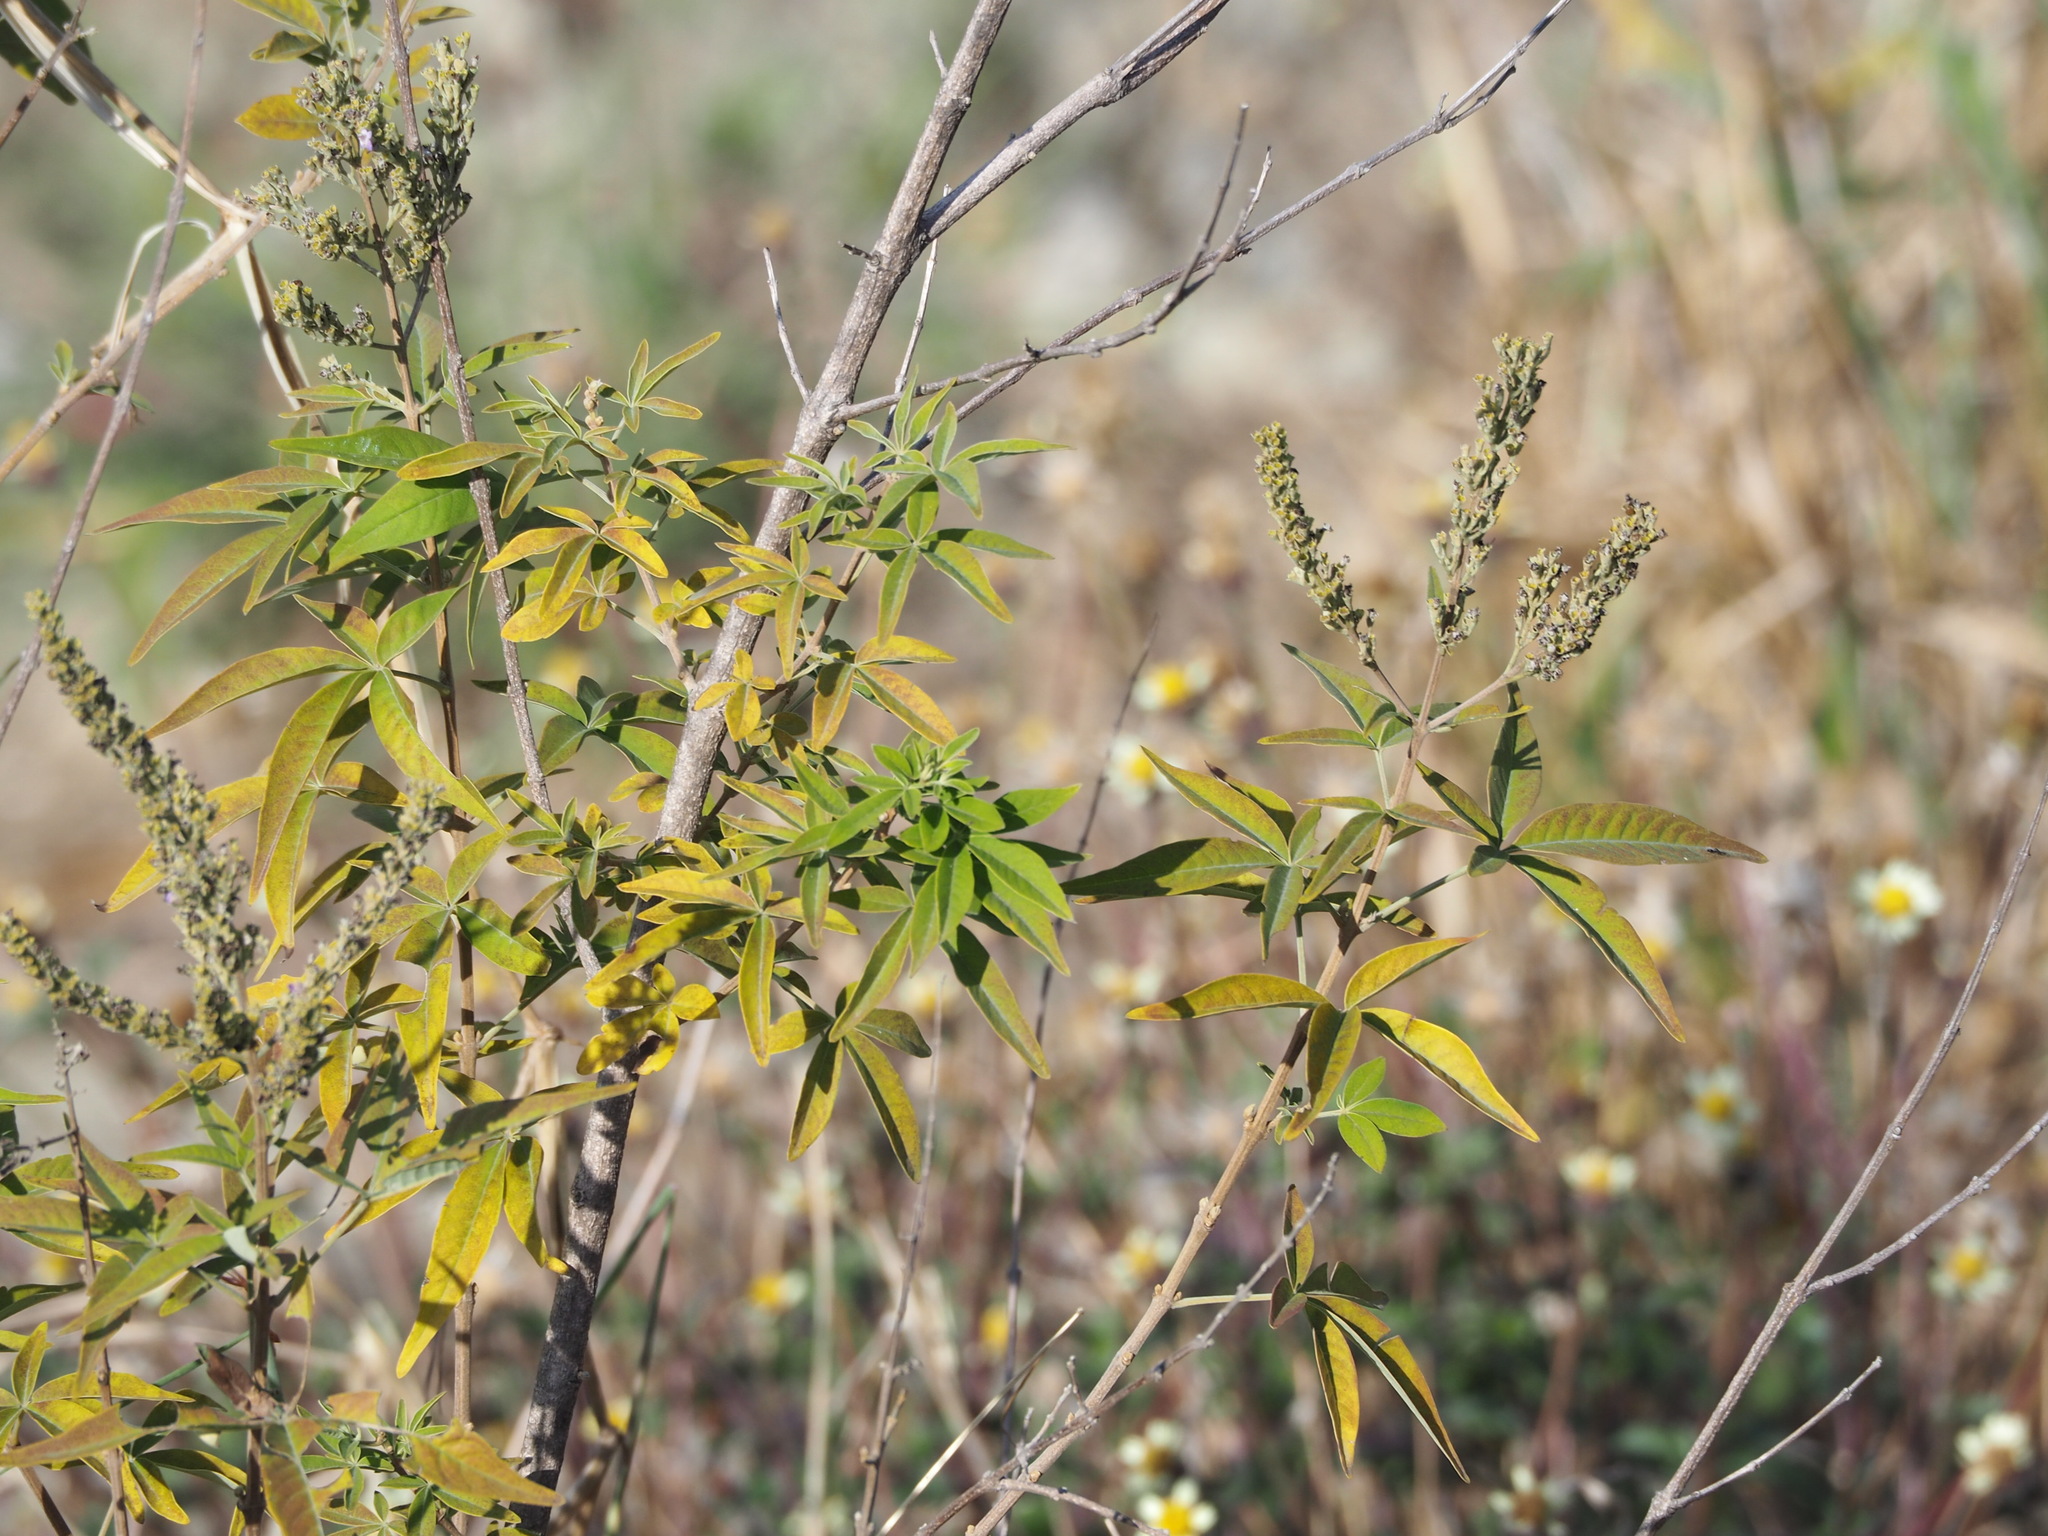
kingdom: Plantae
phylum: Tracheophyta
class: Magnoliopsida
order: Lamiales
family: Lamiaceae
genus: Vitex
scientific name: Vitex negundo
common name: Chinese chastetree
